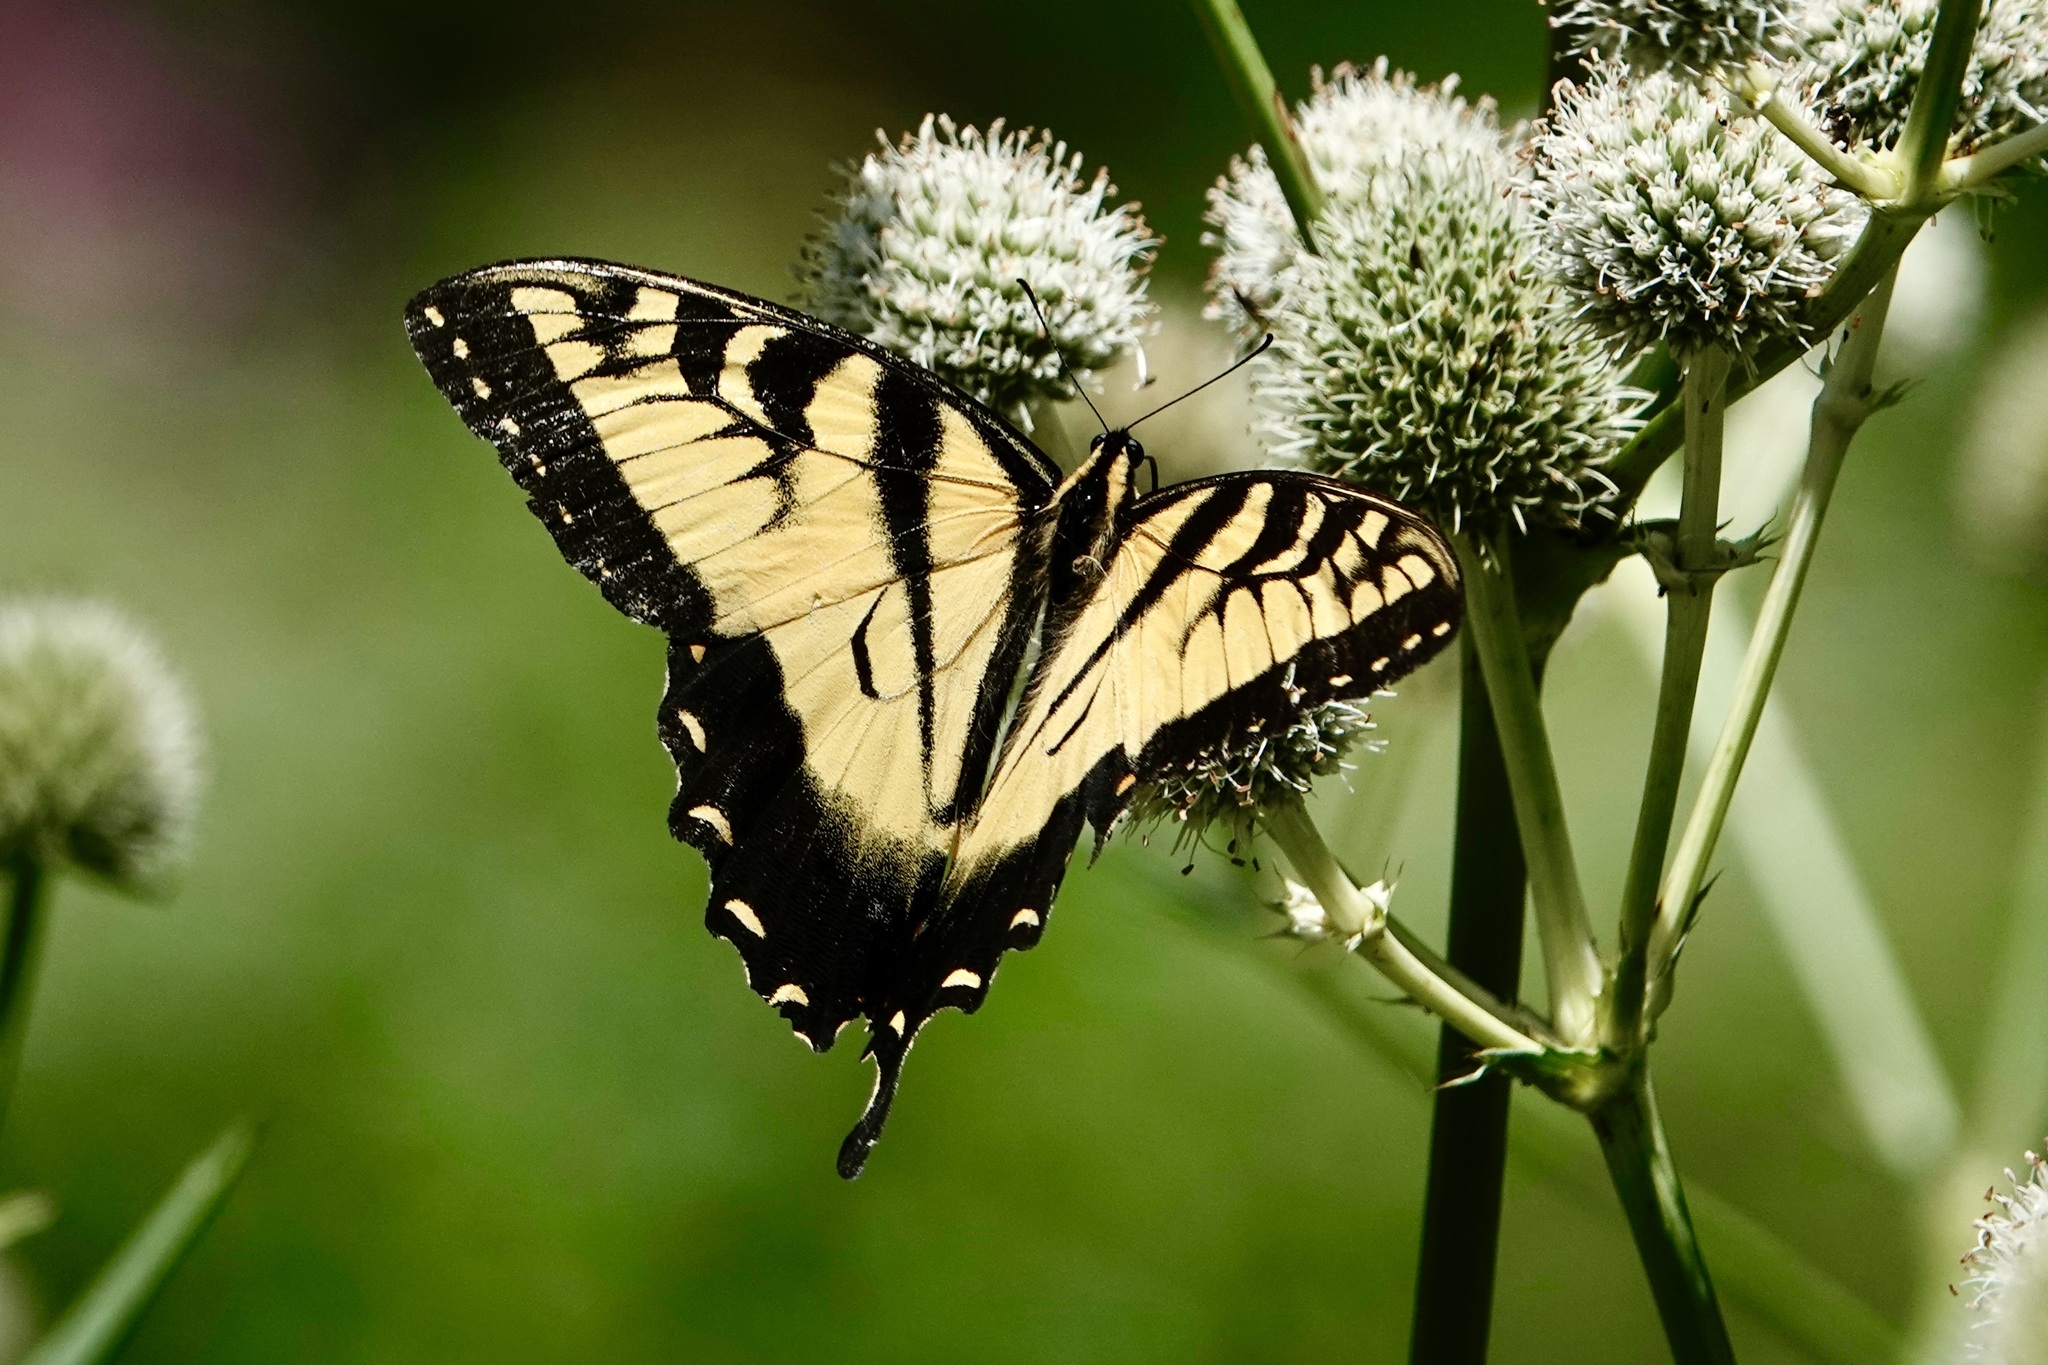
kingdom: Animalia
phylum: Arthropoda
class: Insecta
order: Lepidoptera
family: Papilionidae
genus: Papilio
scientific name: Papilio glaucus
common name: Tiger swallowtail
